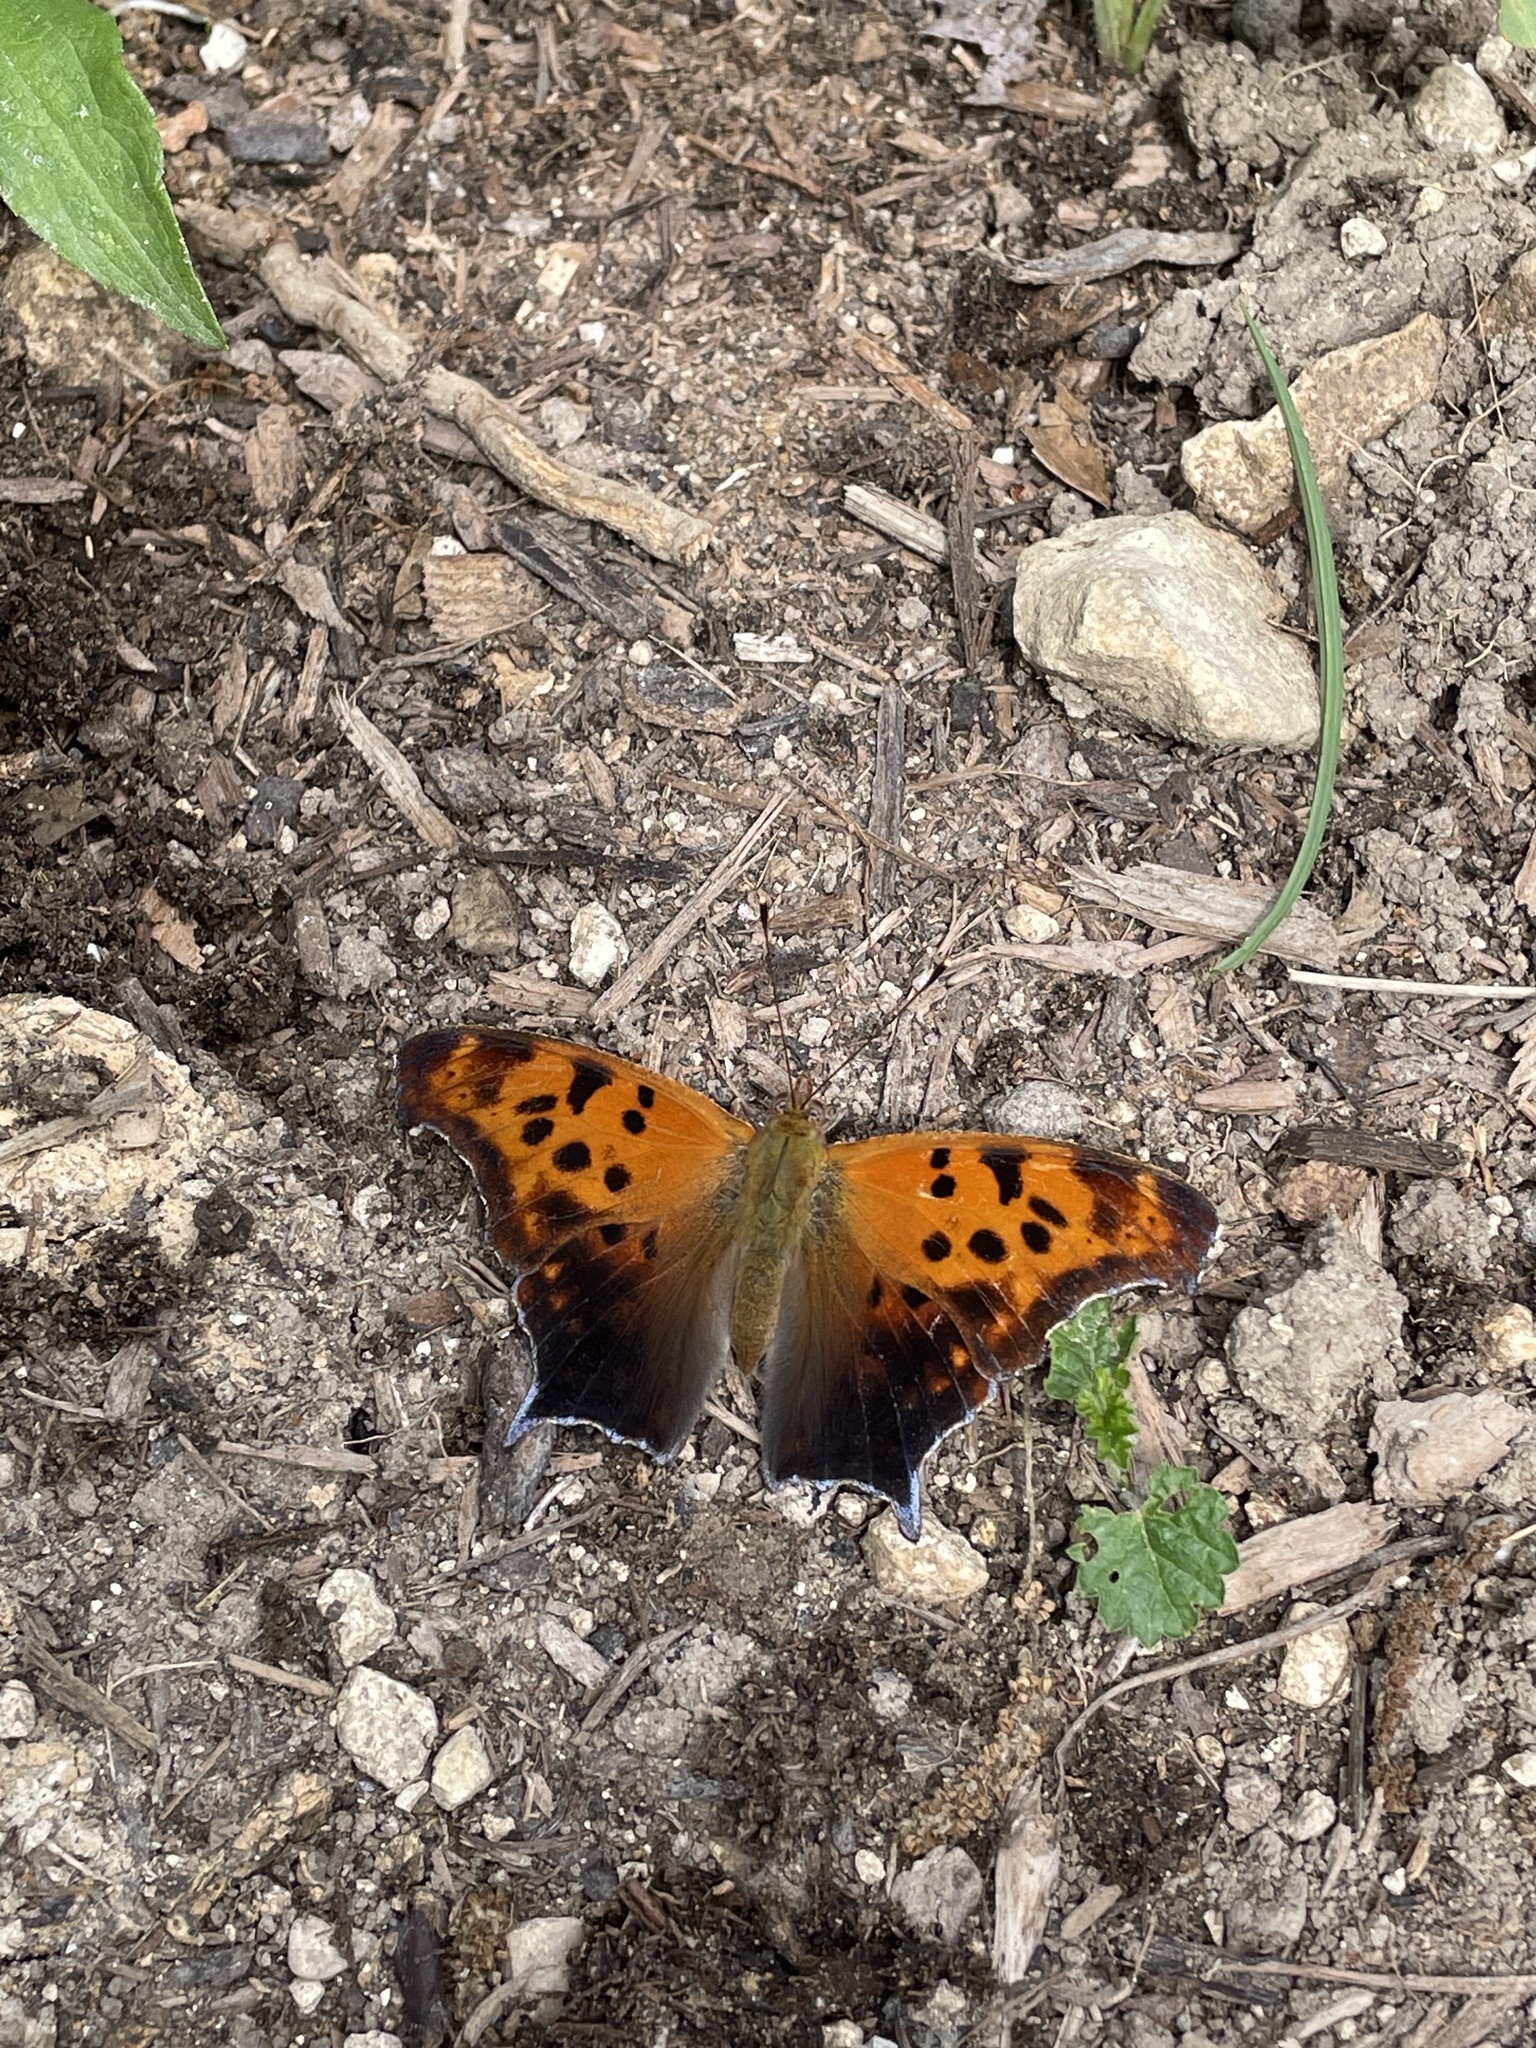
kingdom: Animalia
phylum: Arthropoda
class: Insecta
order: Lepidoptera
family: Nymphalidae
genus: Polygonia
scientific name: Polygonia interrogationis
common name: Question mark
